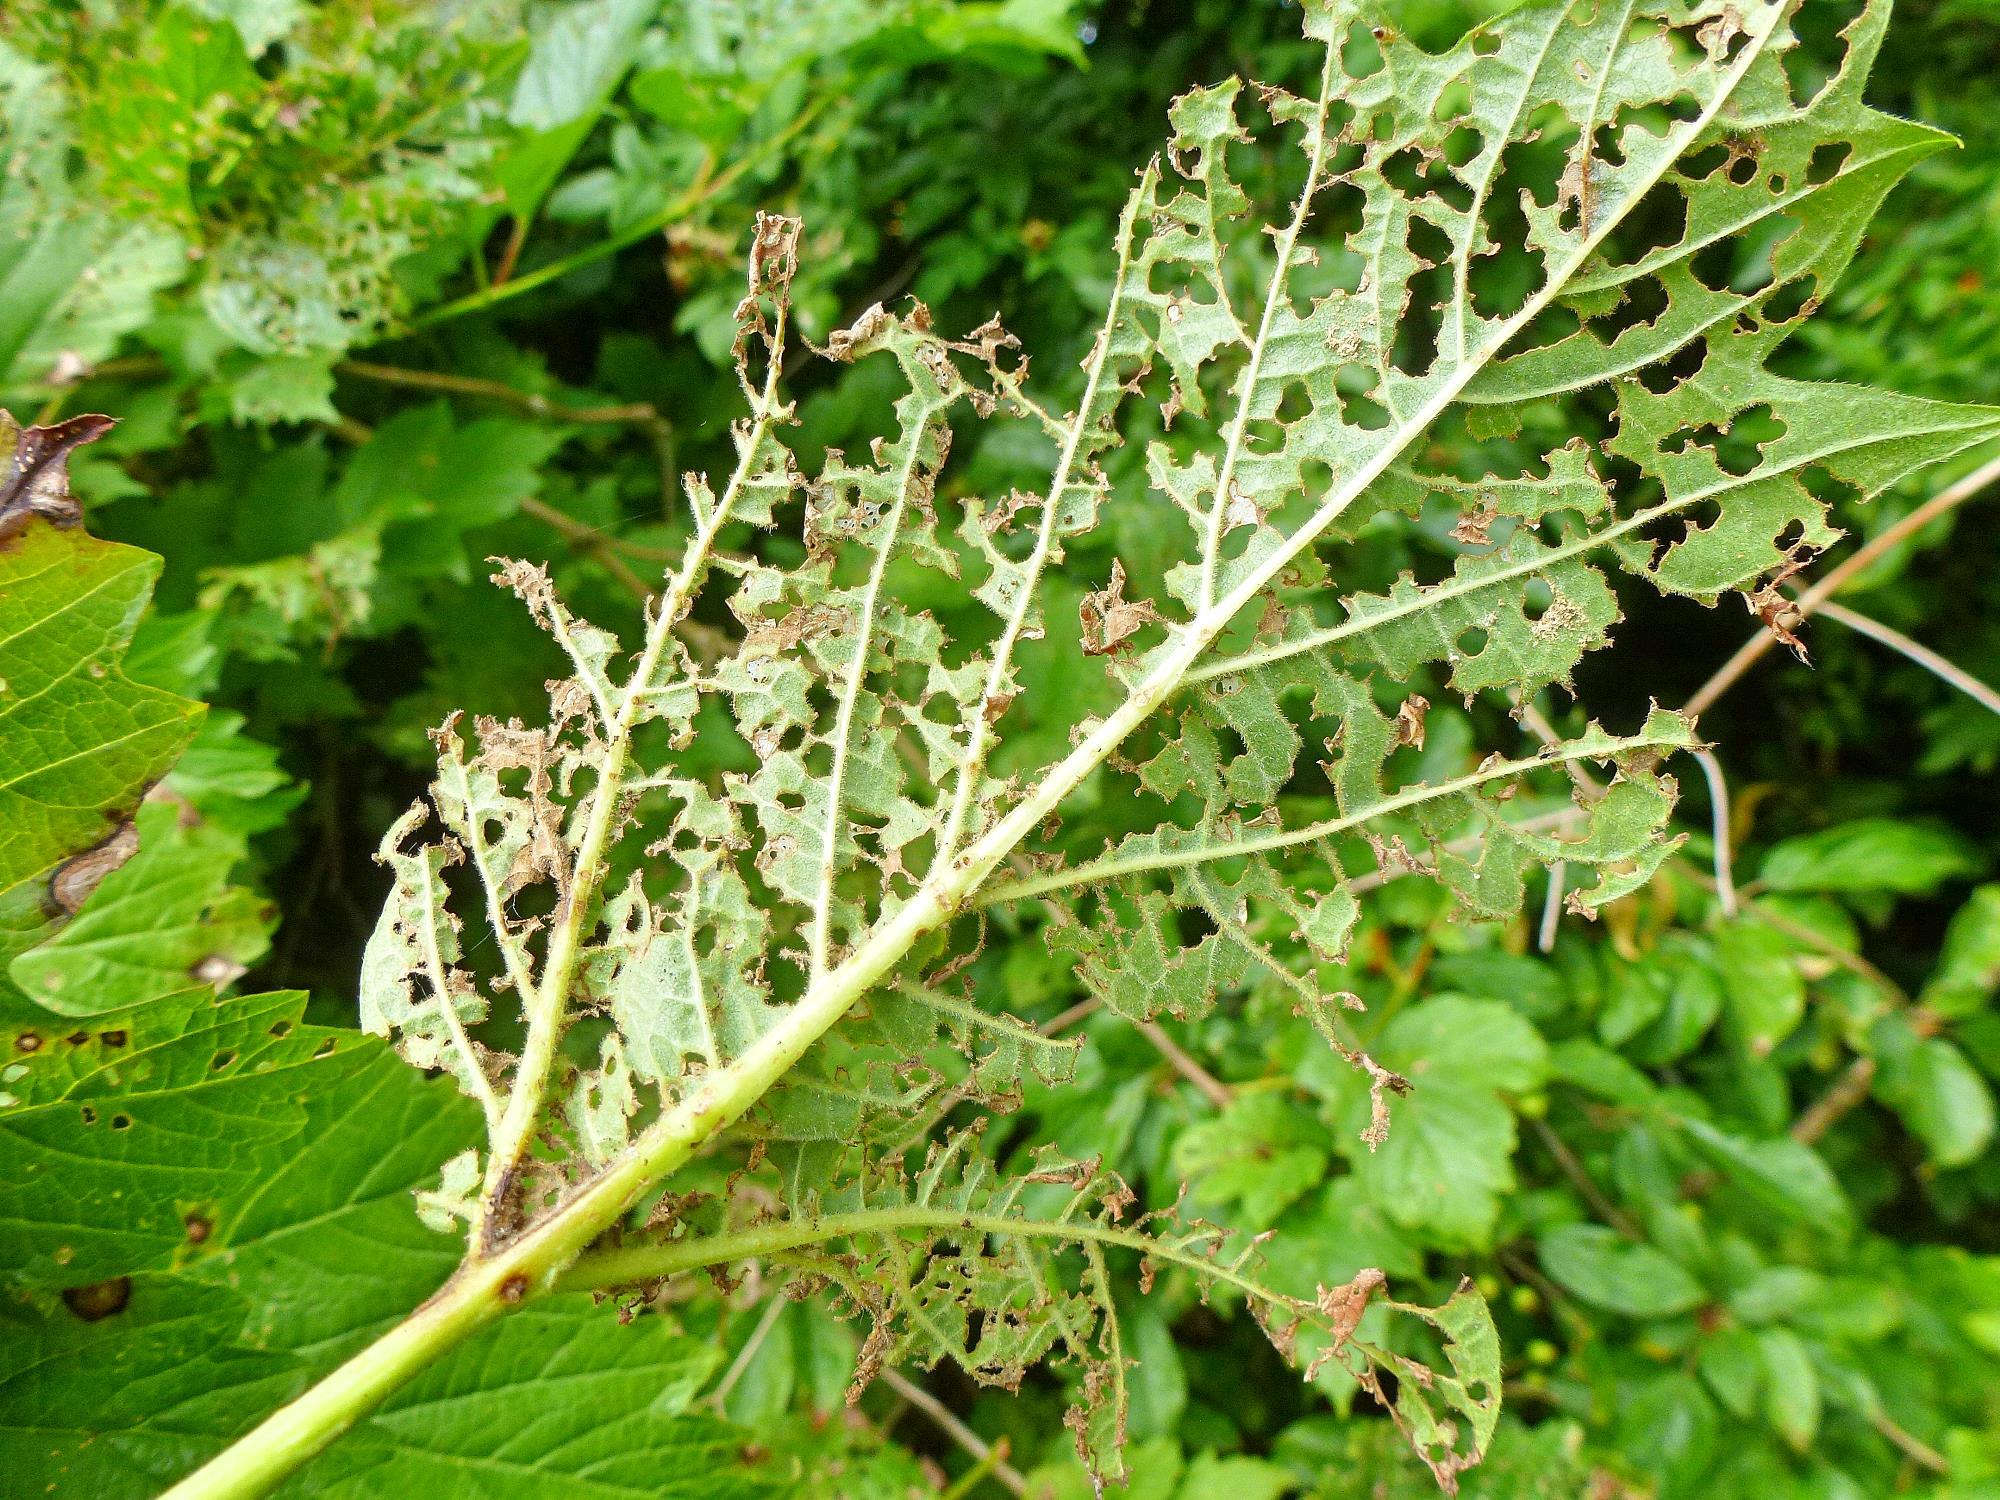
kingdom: Animalia
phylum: Arthropoda
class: Insecta
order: Coleoptera
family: Chrysomelidae
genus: Pyrrhalta
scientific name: Pyrrhalta viburni
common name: Guelder-rose leaf beetle
